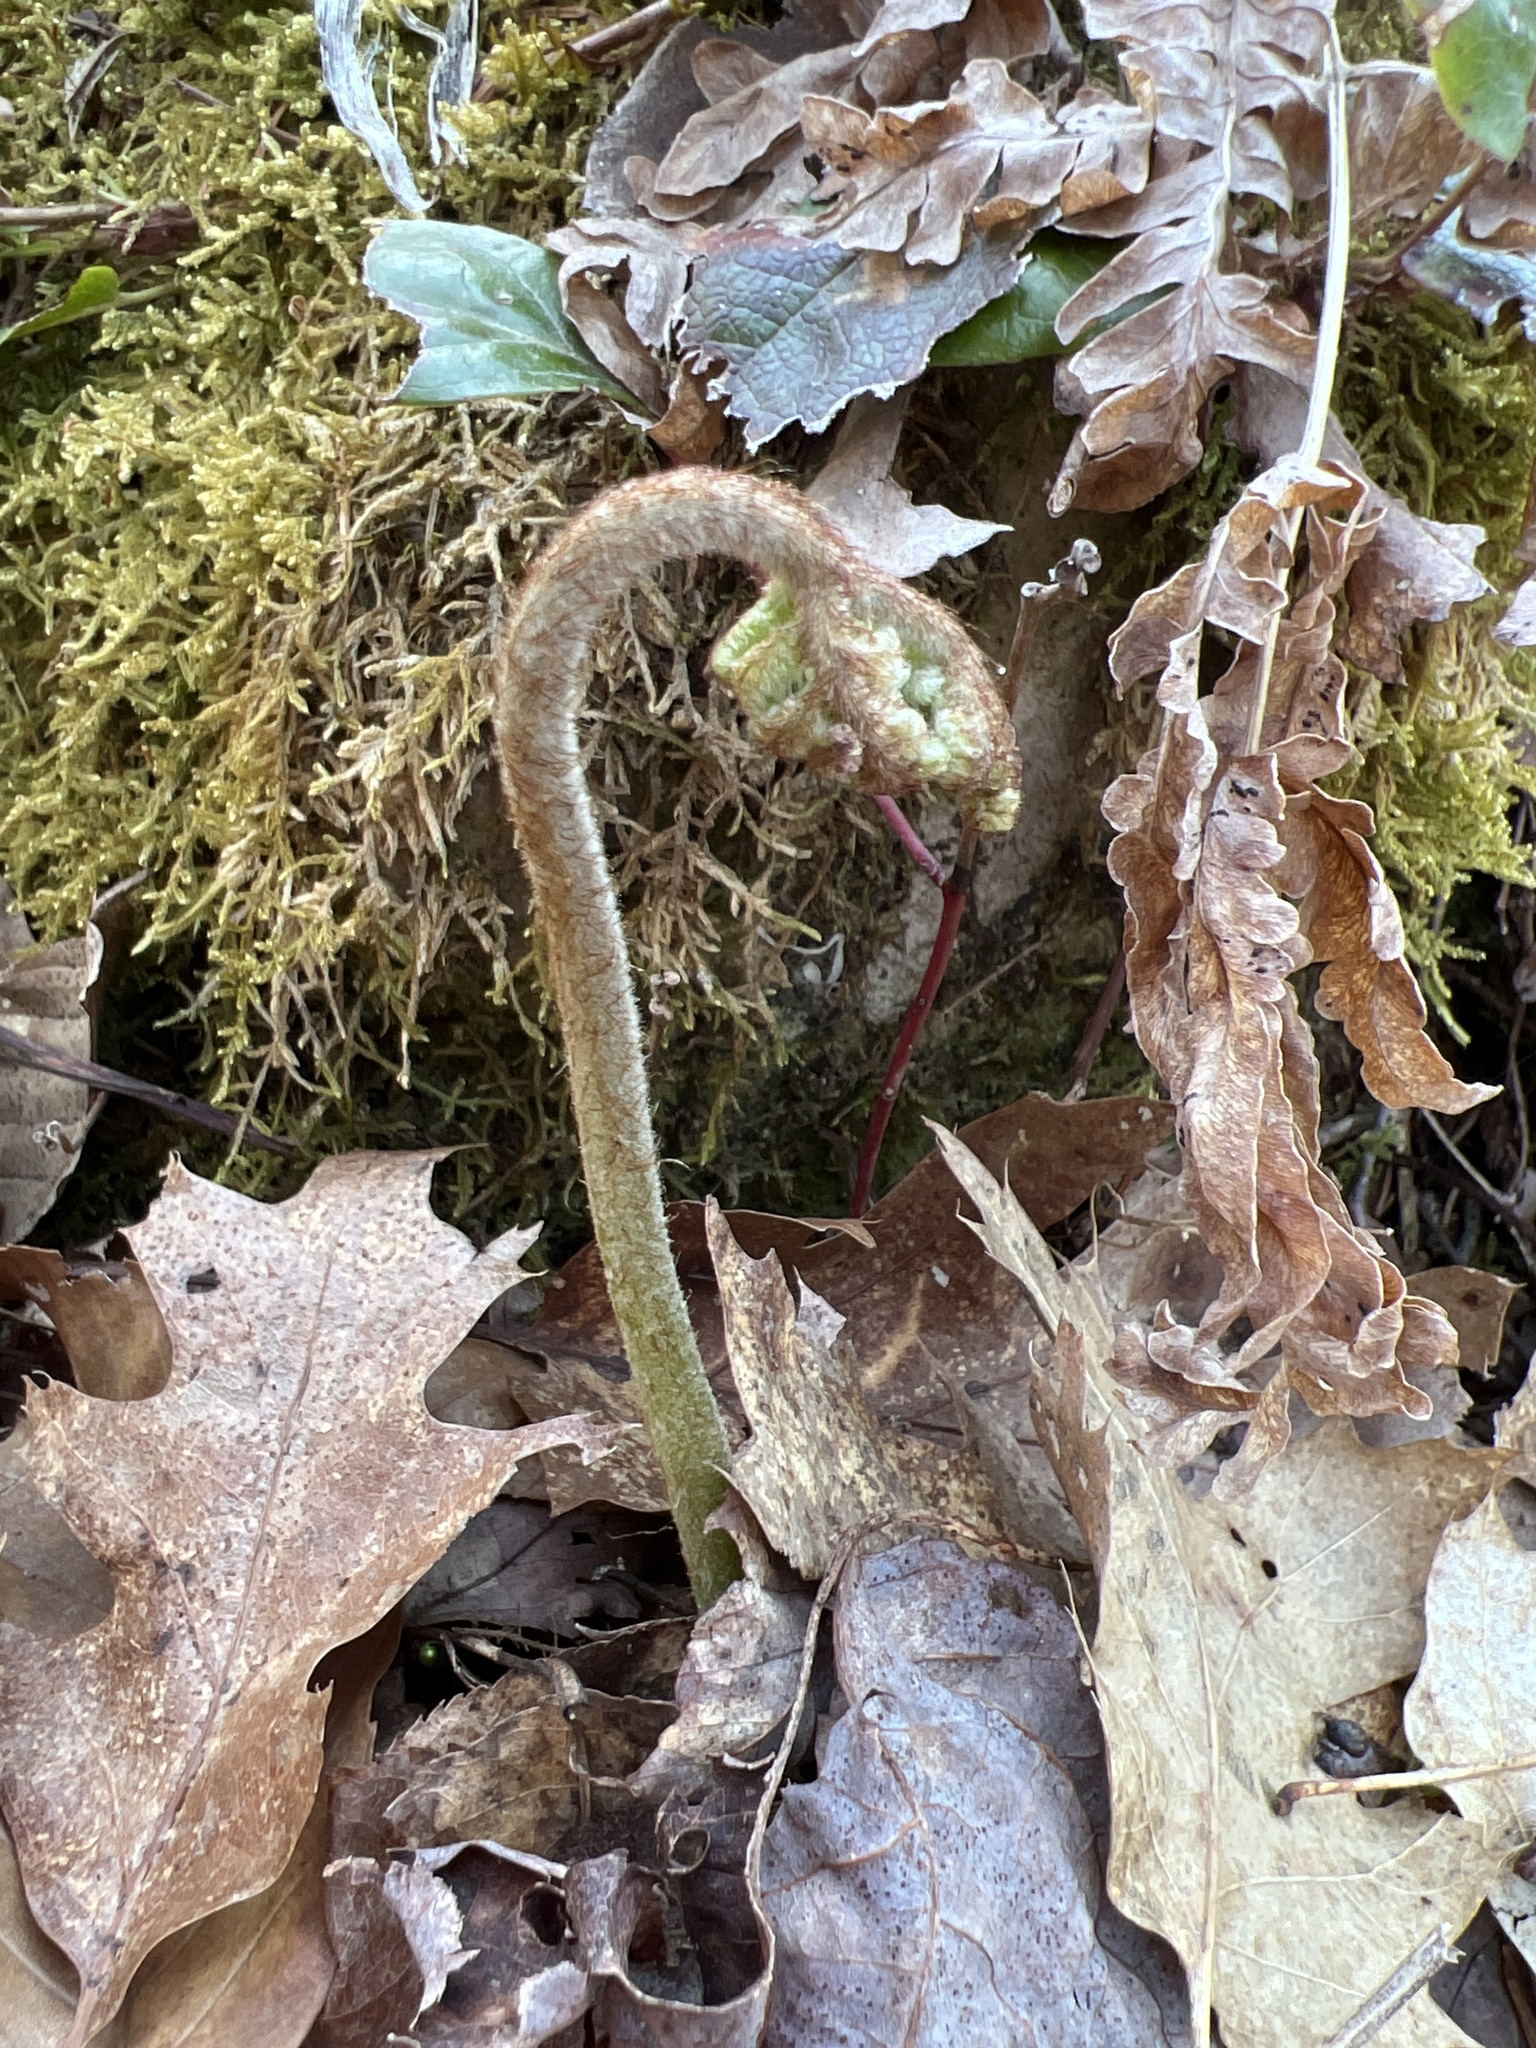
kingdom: Plantae
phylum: Tracheophyta
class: Polypodiopsida
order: Polypodiales
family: Dennstaedtiaceae
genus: Pteridium
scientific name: Pteridium aquilinum
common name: Bracken
